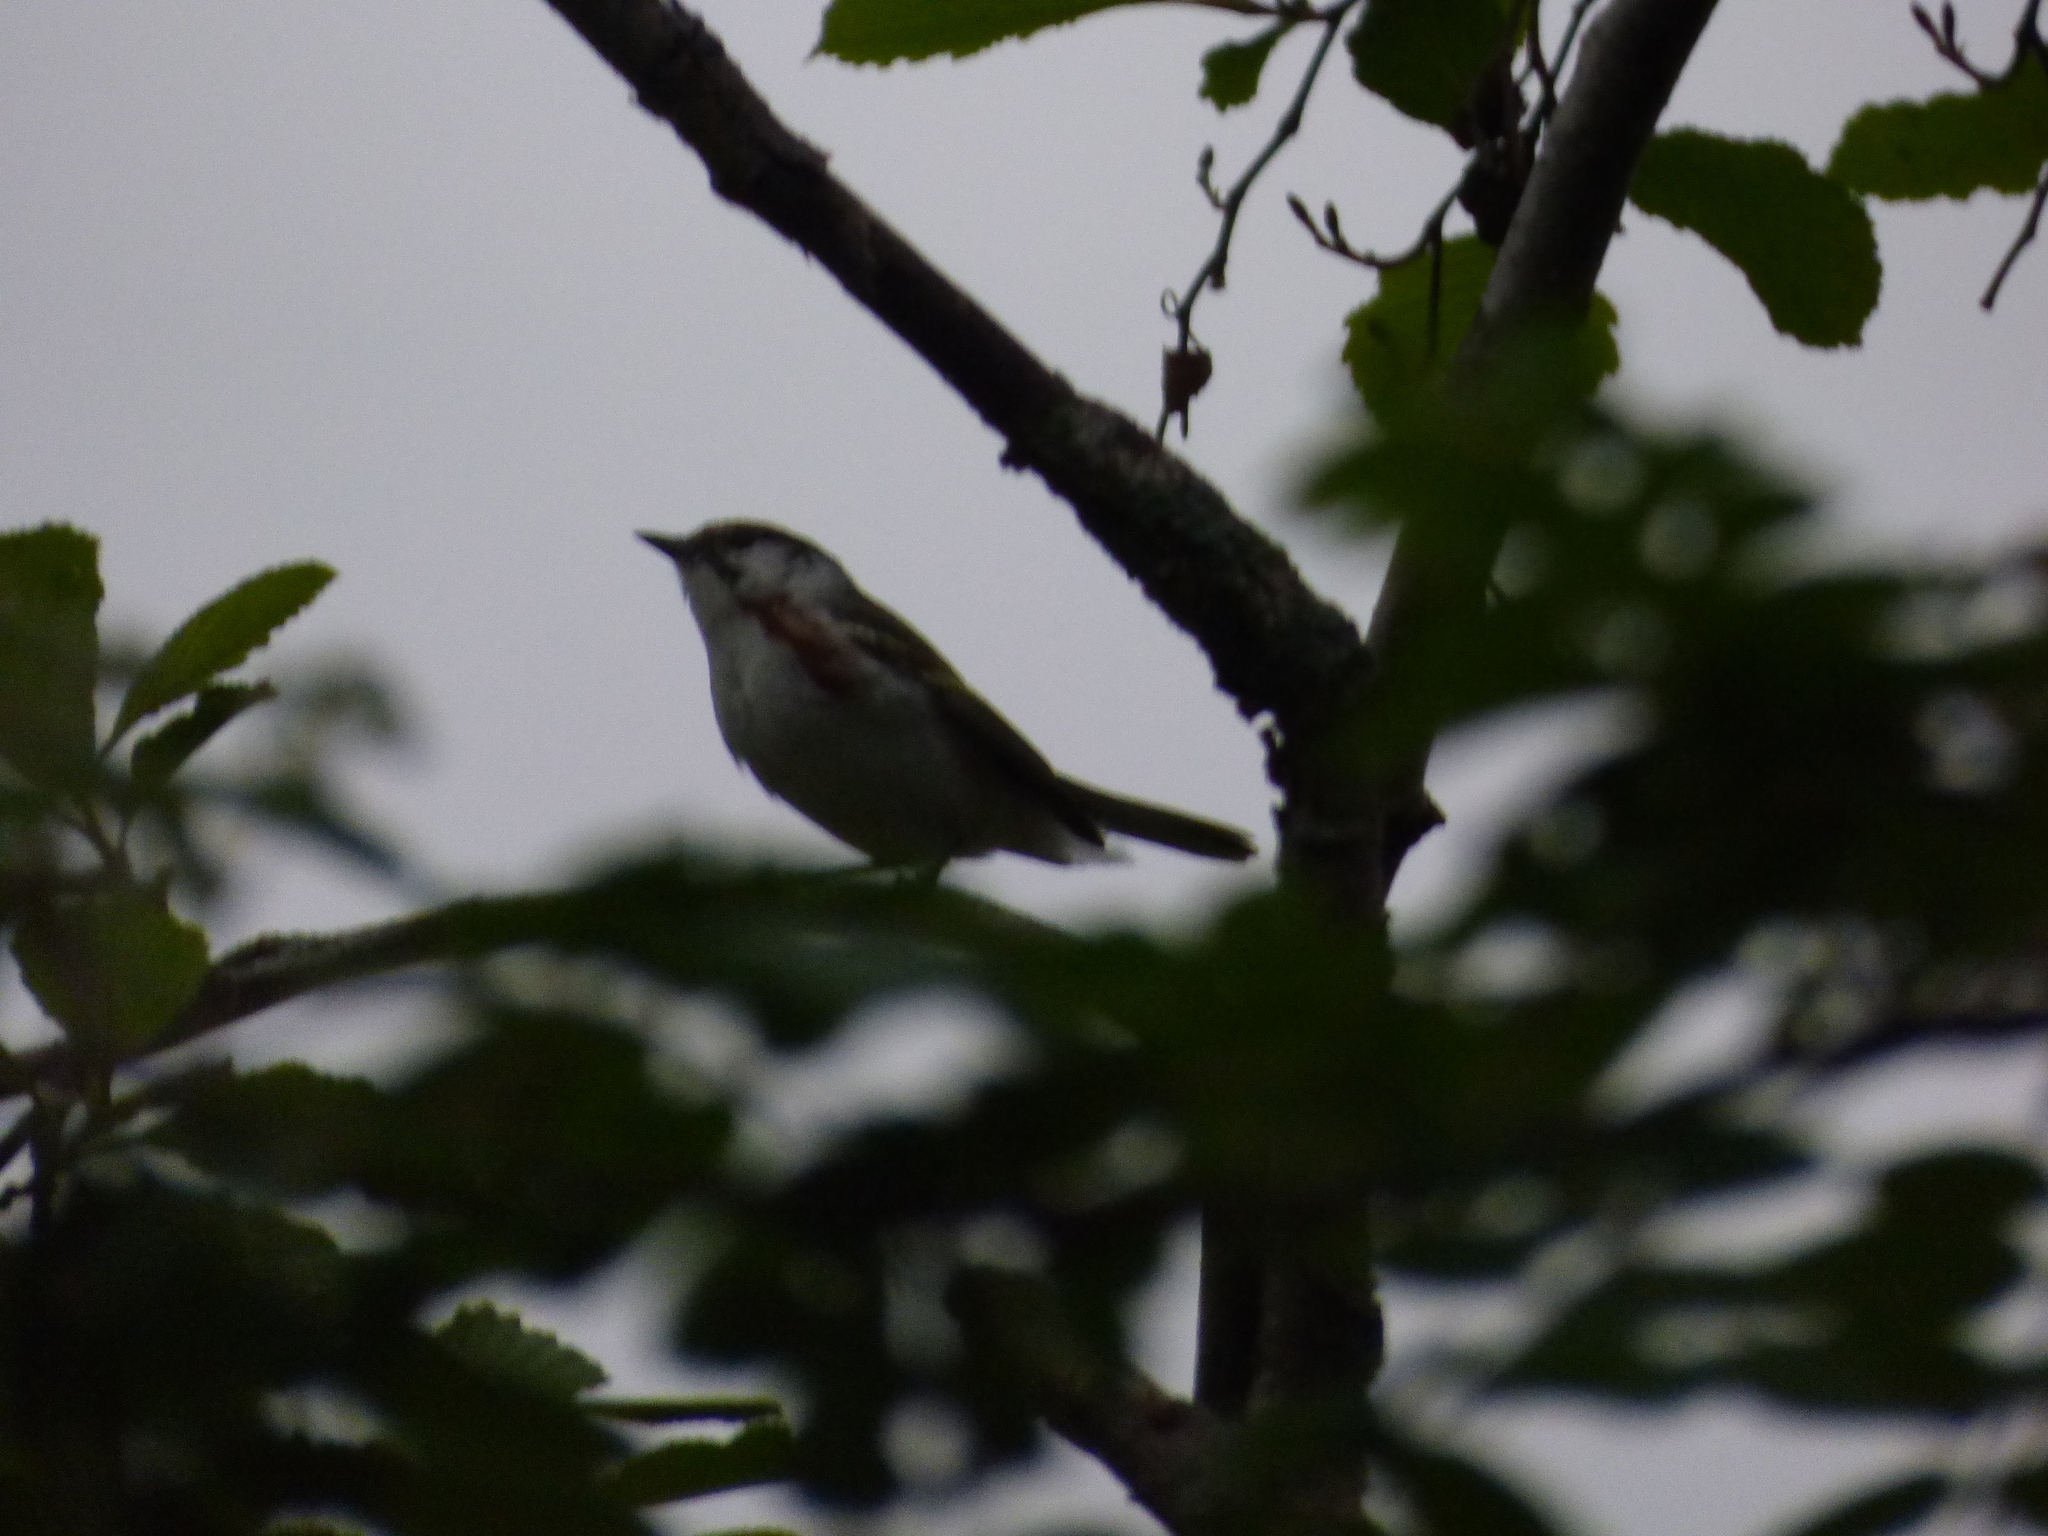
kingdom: Animalia
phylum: Chordata
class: Aves
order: Passeriformes
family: Parulidae
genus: Setophaga
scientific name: Setophaga pensylvanica
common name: Chestnut-sided warbler
